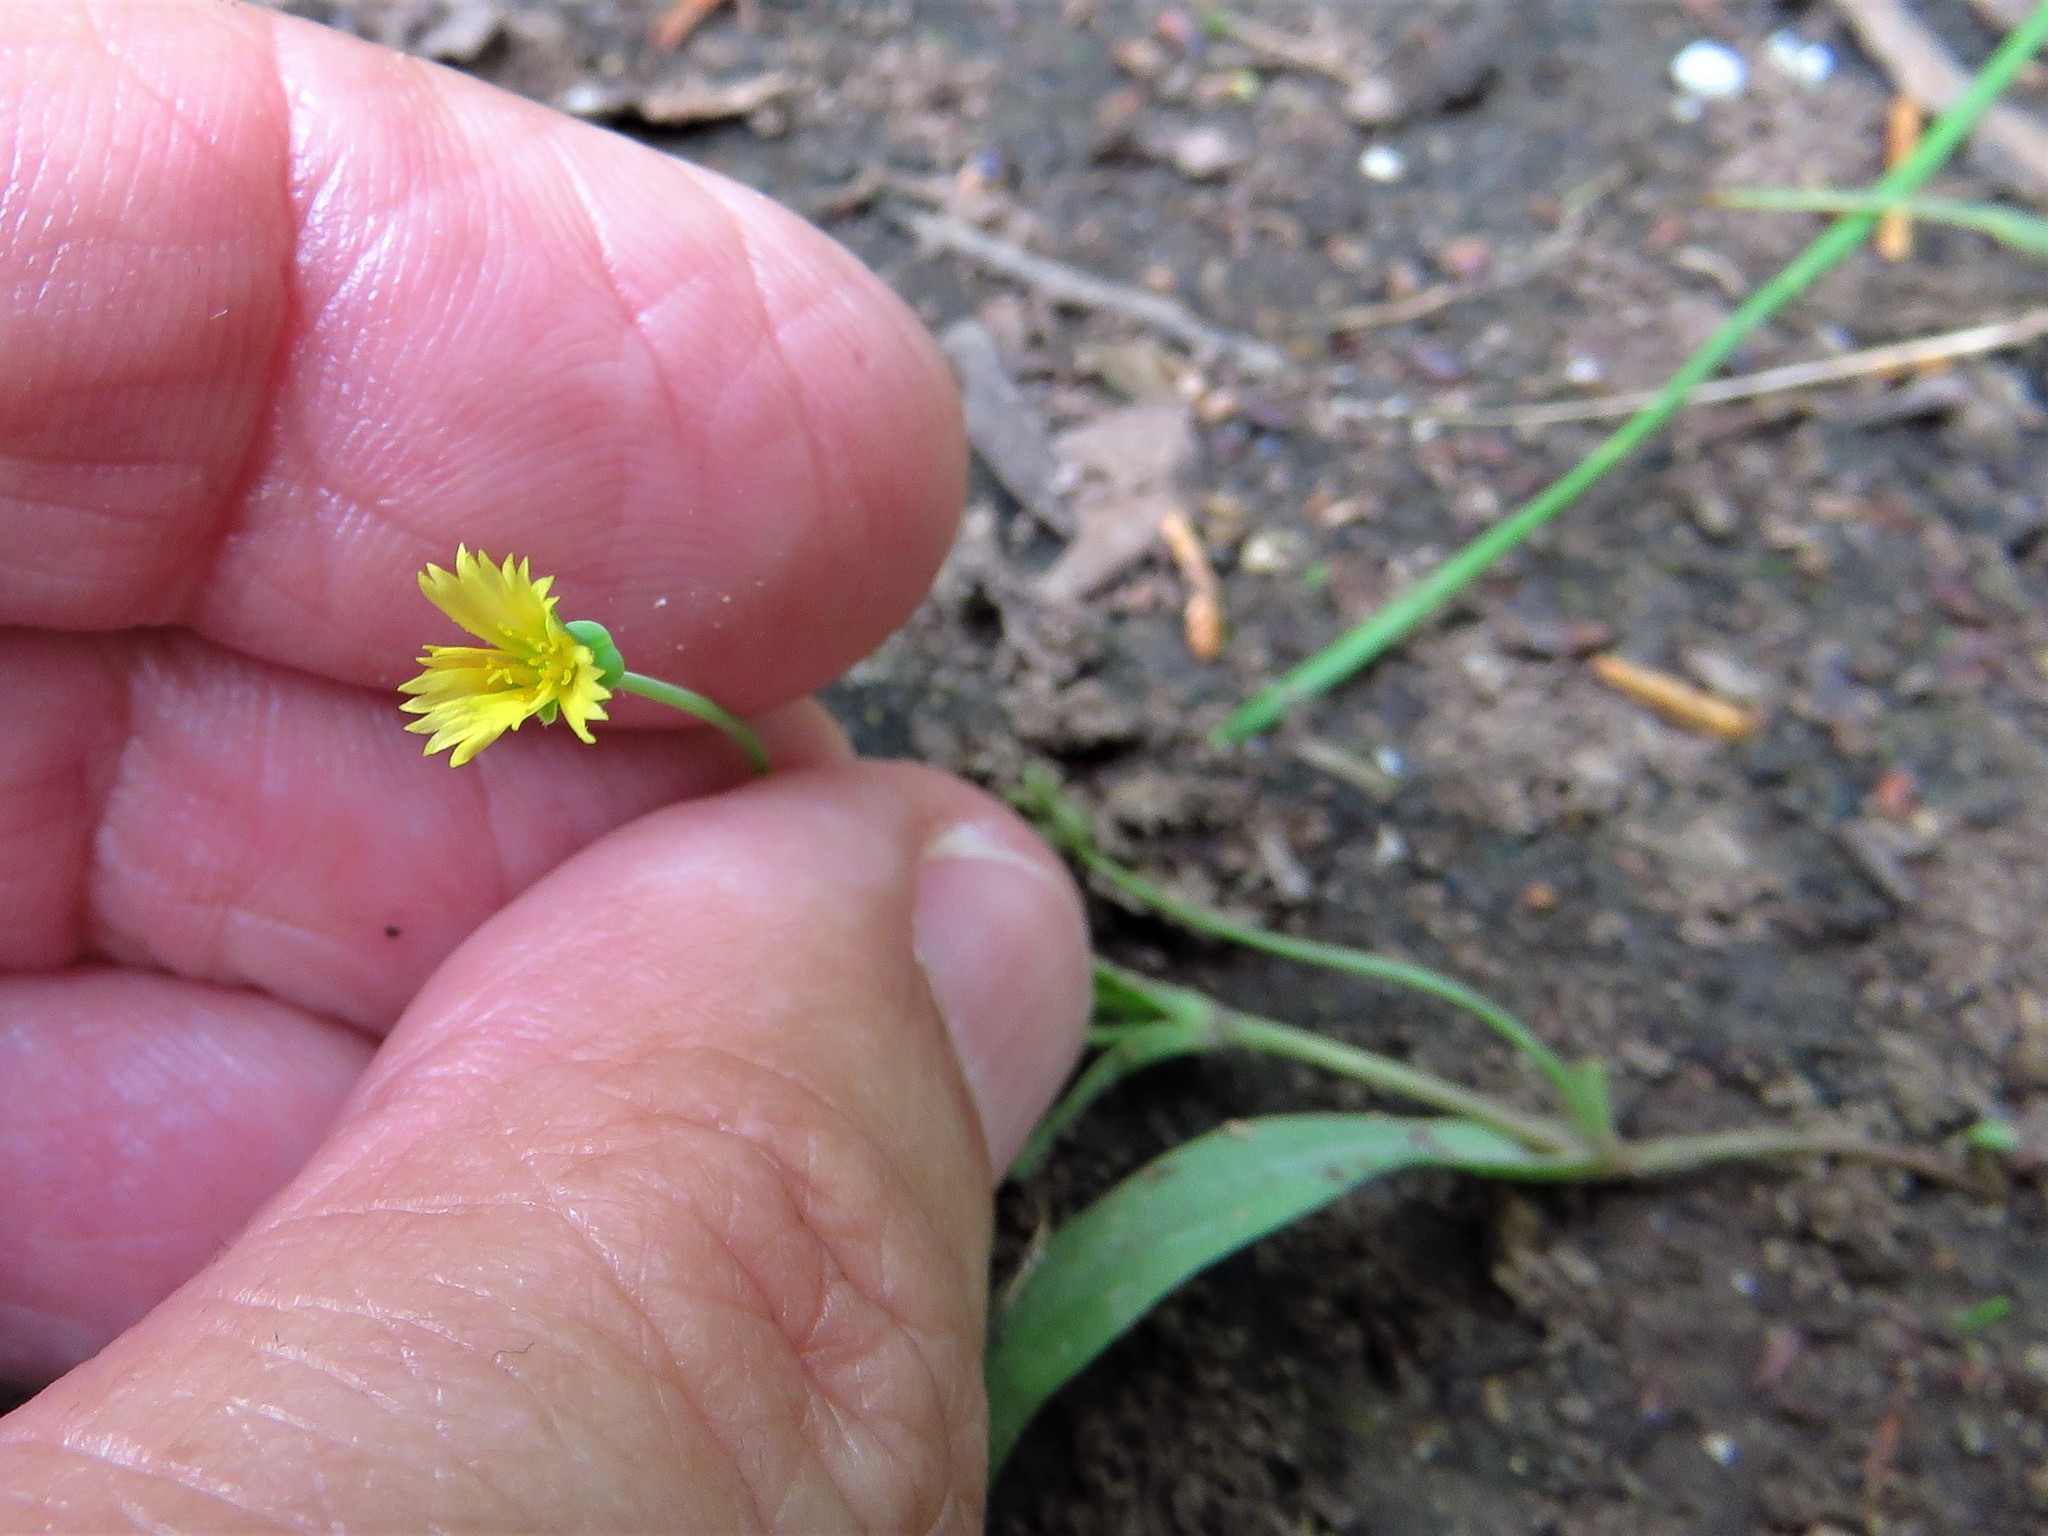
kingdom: Plantae
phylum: Tracheophyta
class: Magnoliopsida
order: Asterales
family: Asteraceae
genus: Krigia
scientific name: Krigia cespitosa
